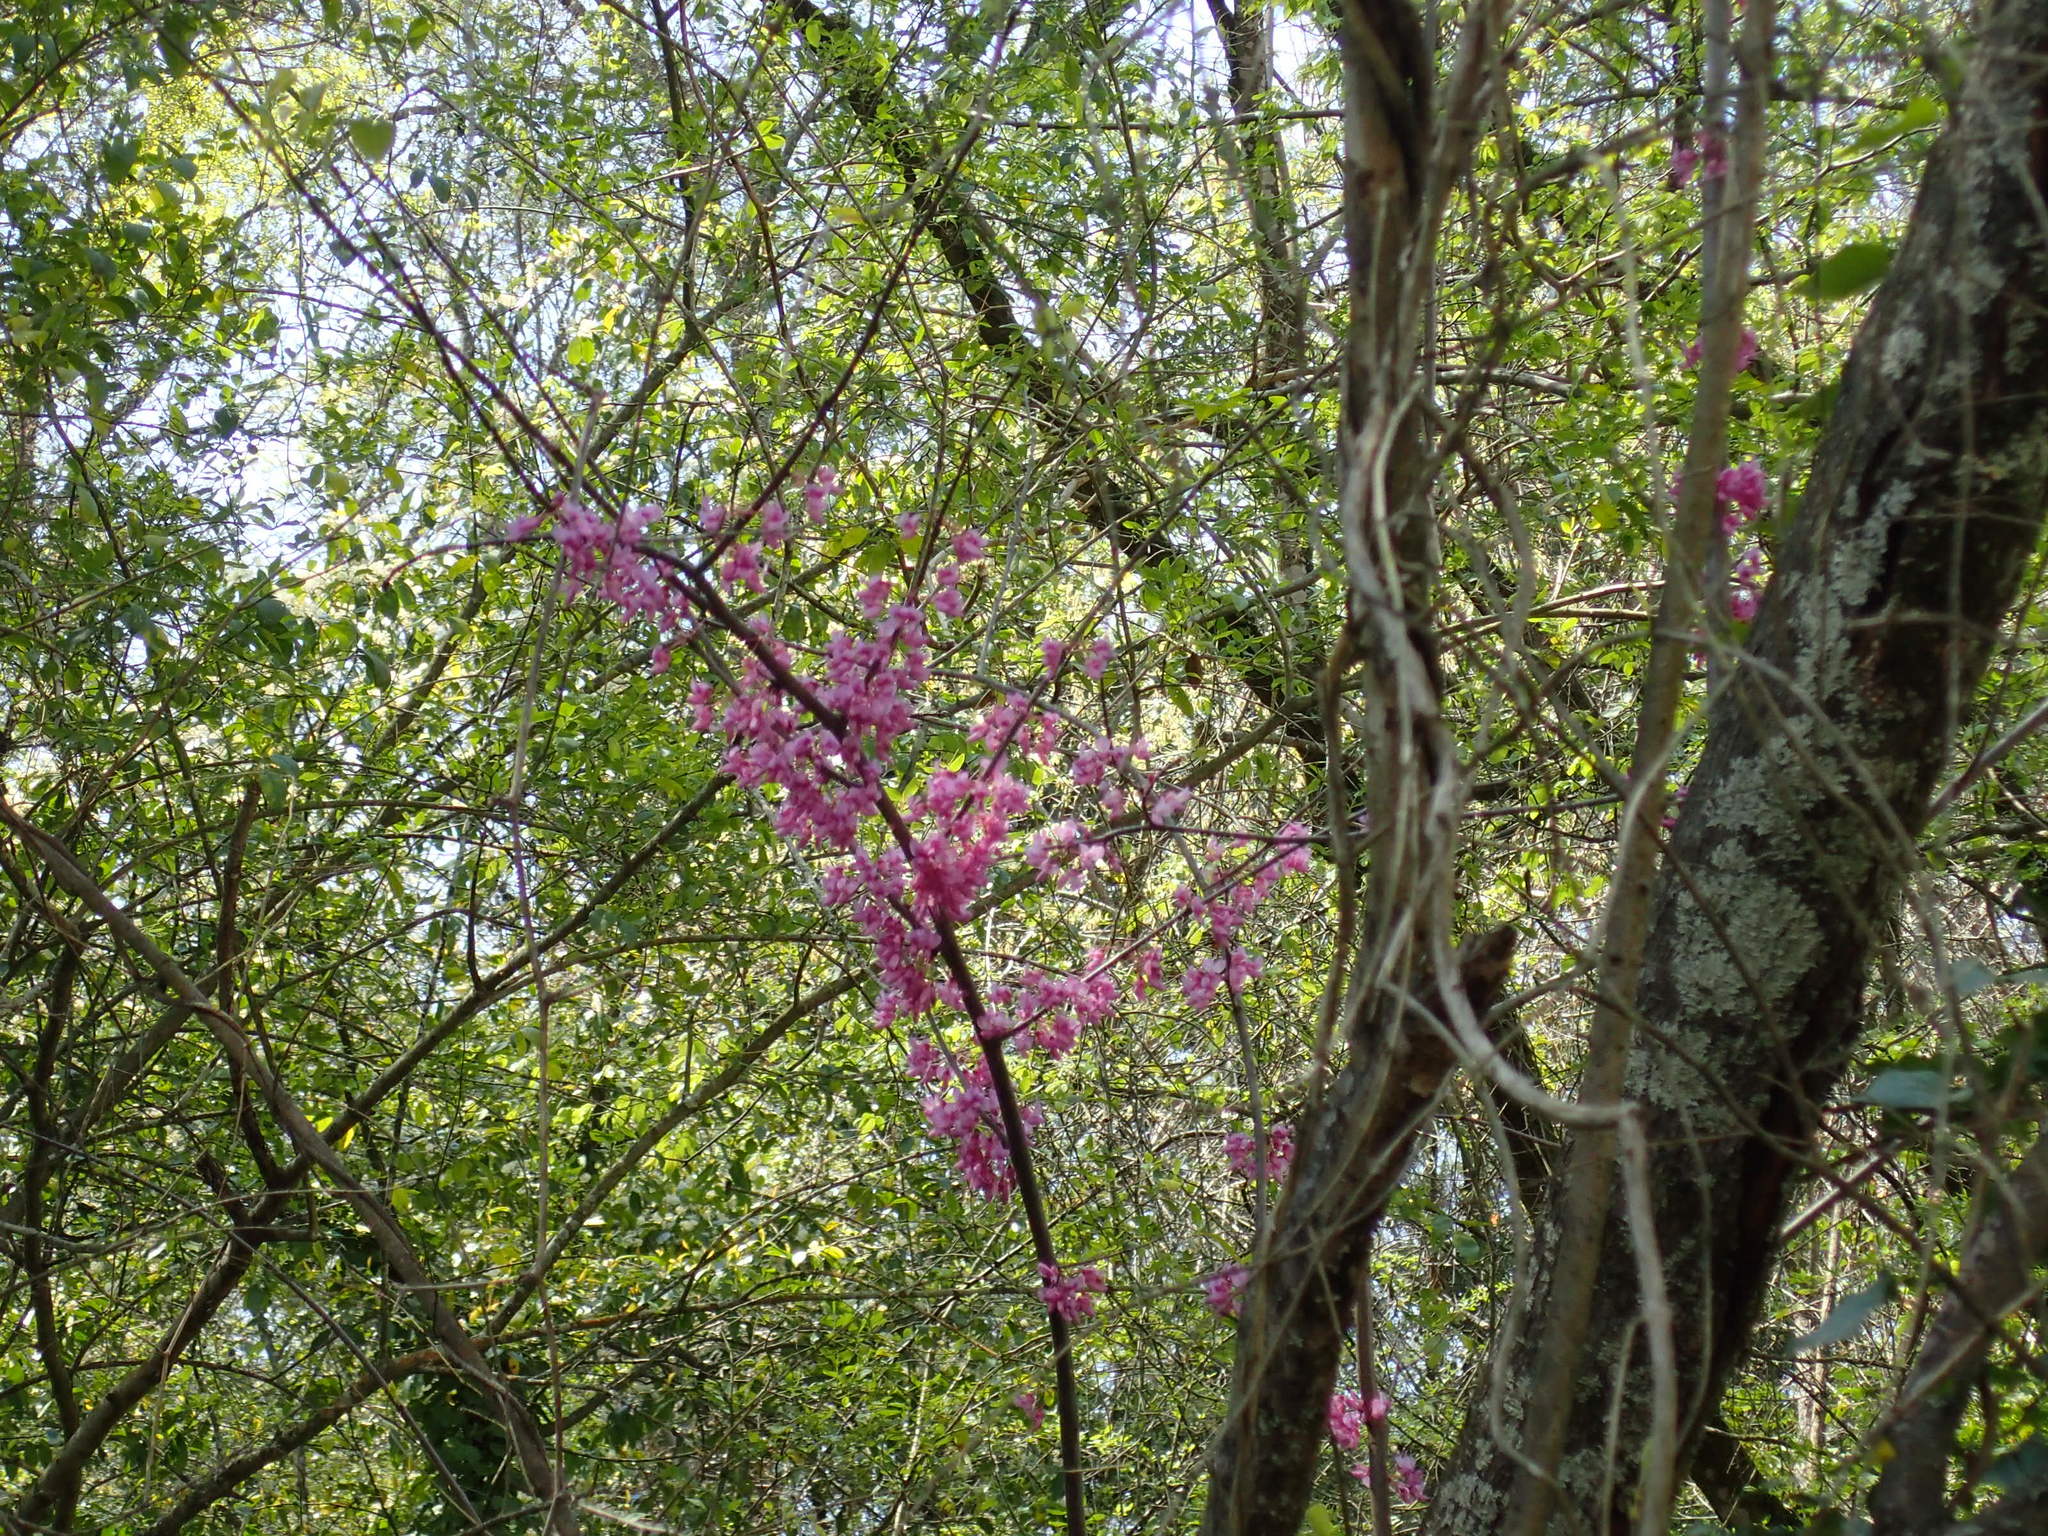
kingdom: Plantae
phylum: Tracheophyta
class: Magnoliopsida
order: Fabales
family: Fabaceae
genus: Cercis
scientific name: Cercis canadensis
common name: Eastern redbud
